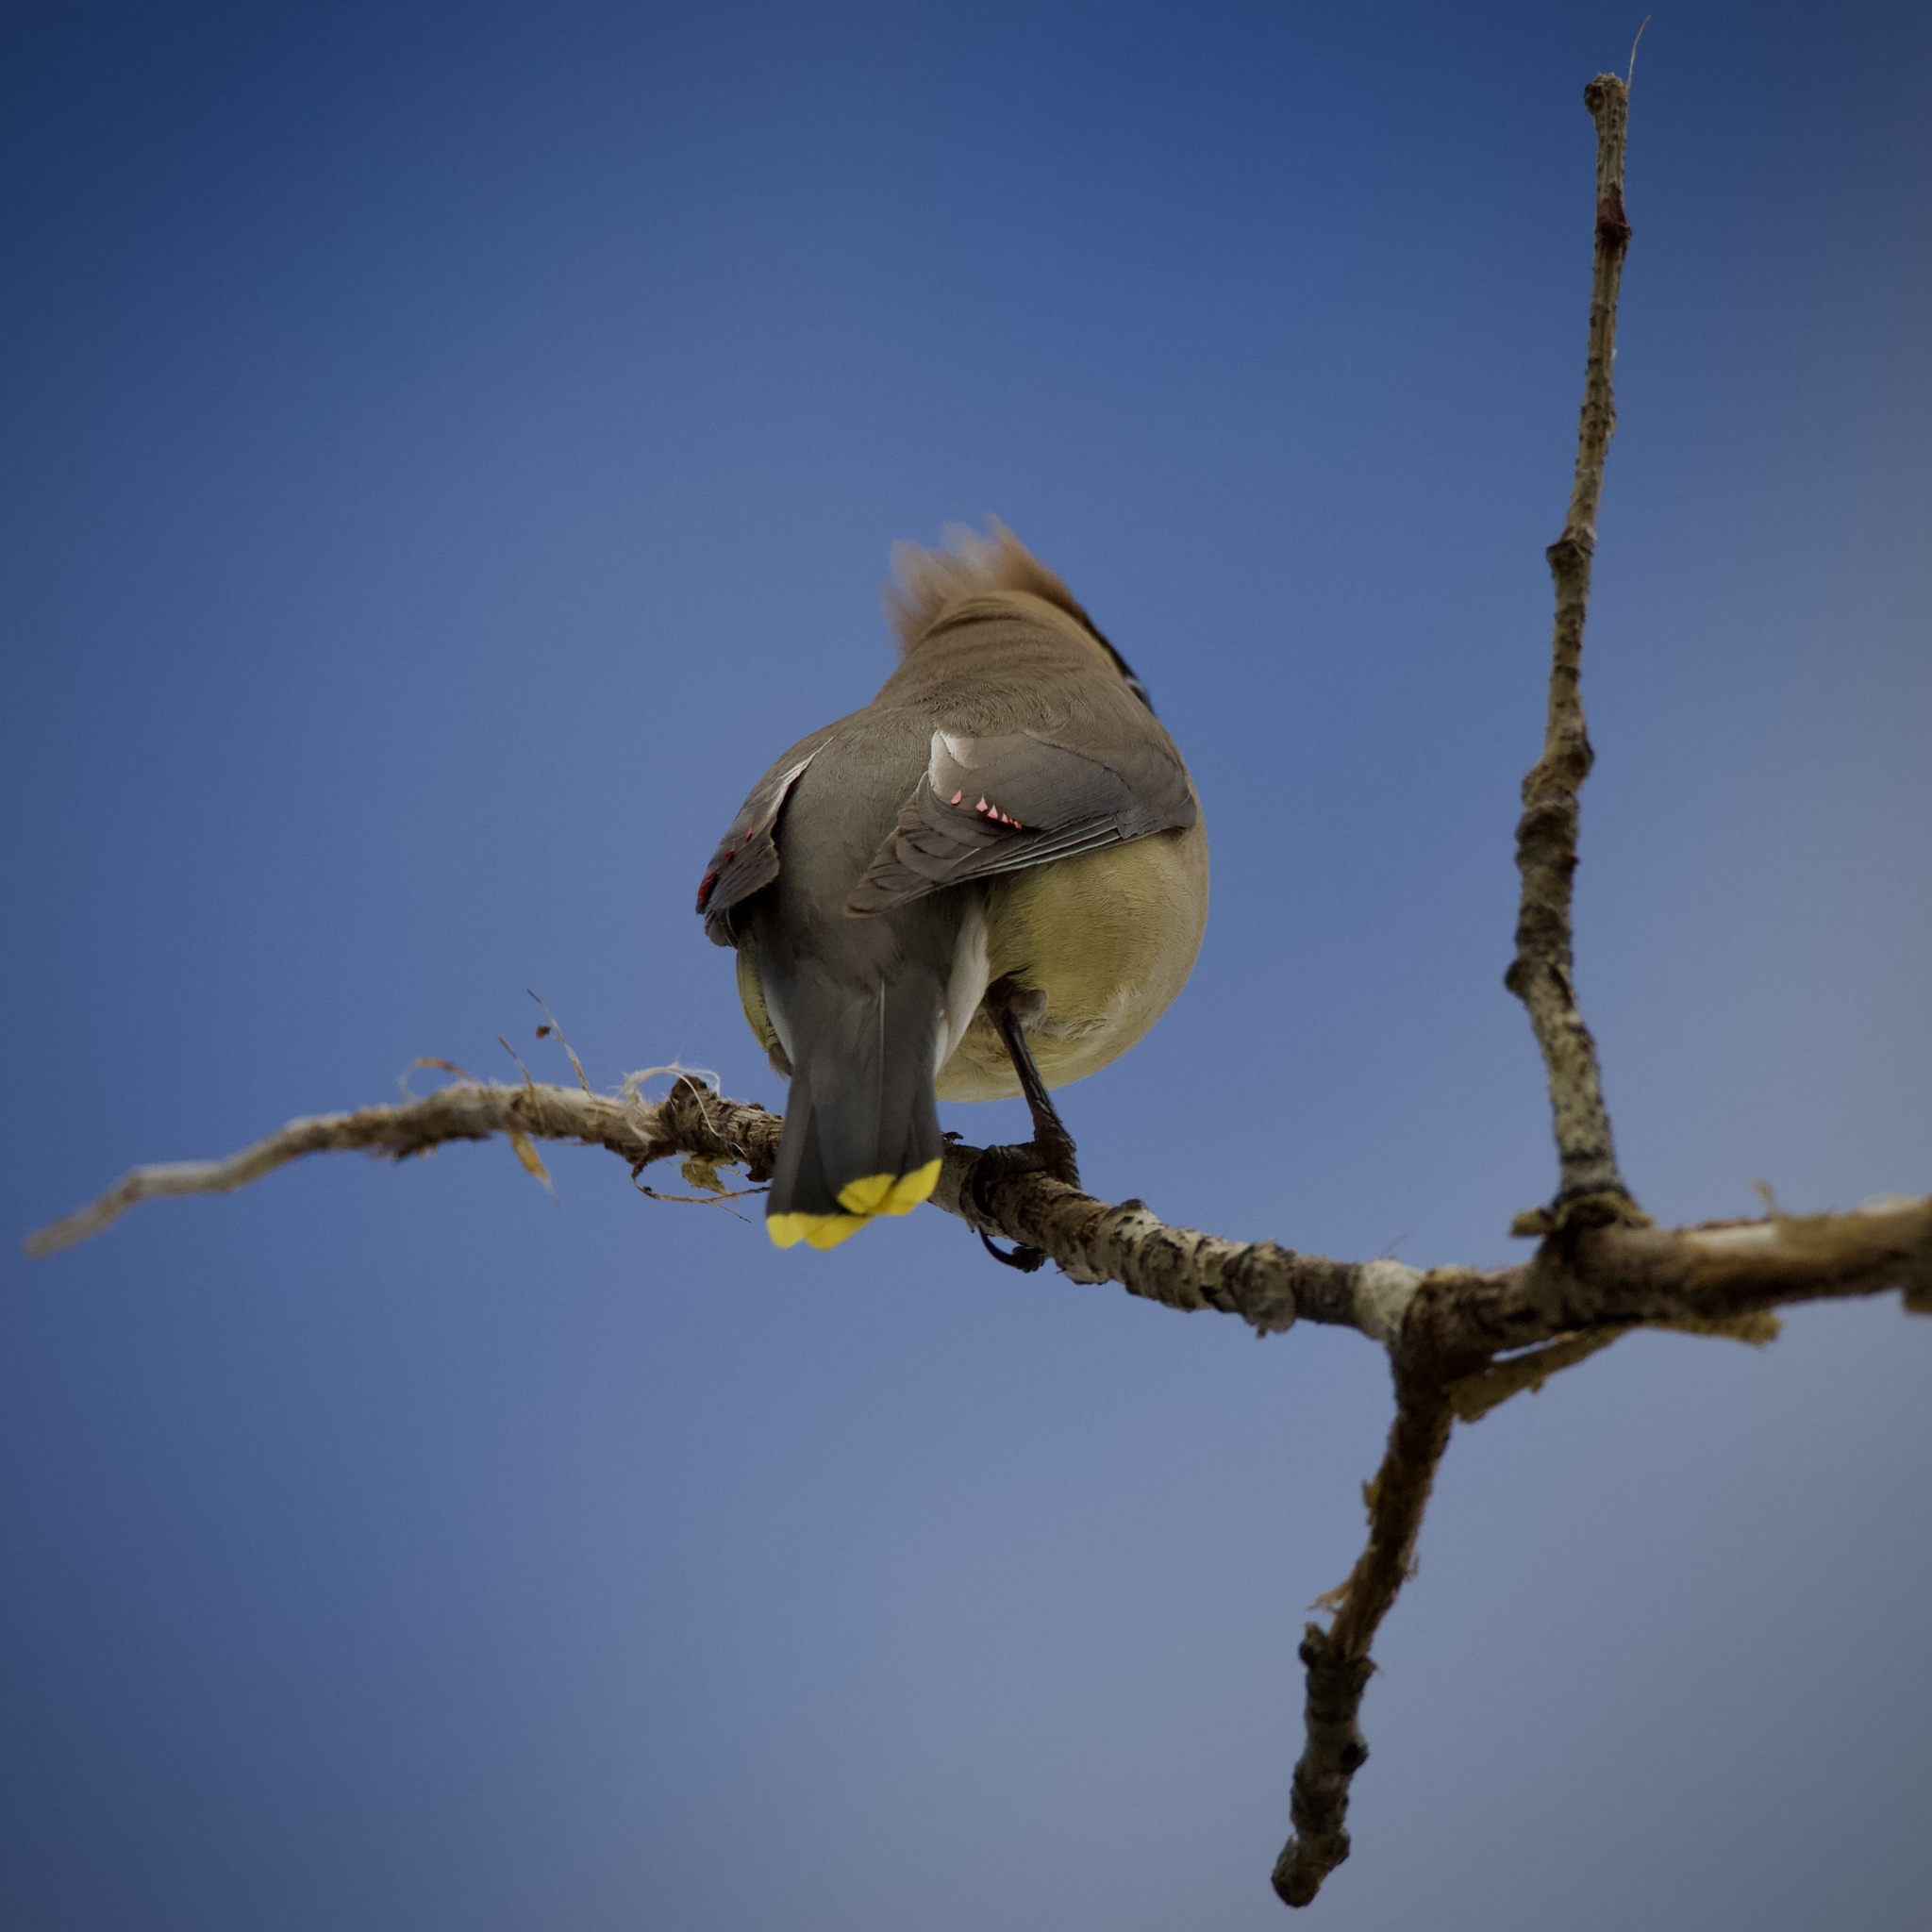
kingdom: Animalia
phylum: Chordata
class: Aves
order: Passeriformes
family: Bombycillidae
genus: Bombycilla
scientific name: Bombycilla cedrorum
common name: Cedar waxwing
